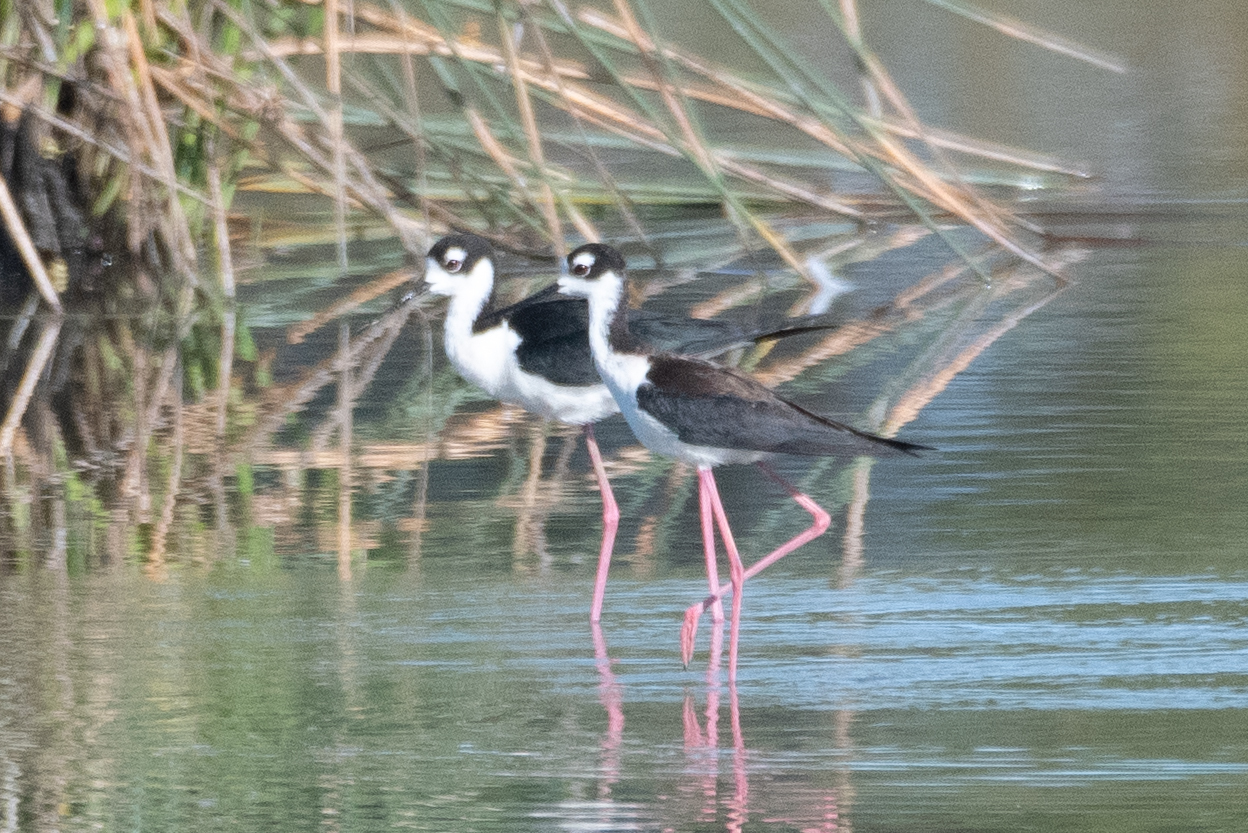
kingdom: Animalia
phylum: Chordata
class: Aves
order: Charadriiformes
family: Recurvirostridae
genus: Himantopus
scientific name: Himantopus mexicanus
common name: Black-necked stilt
